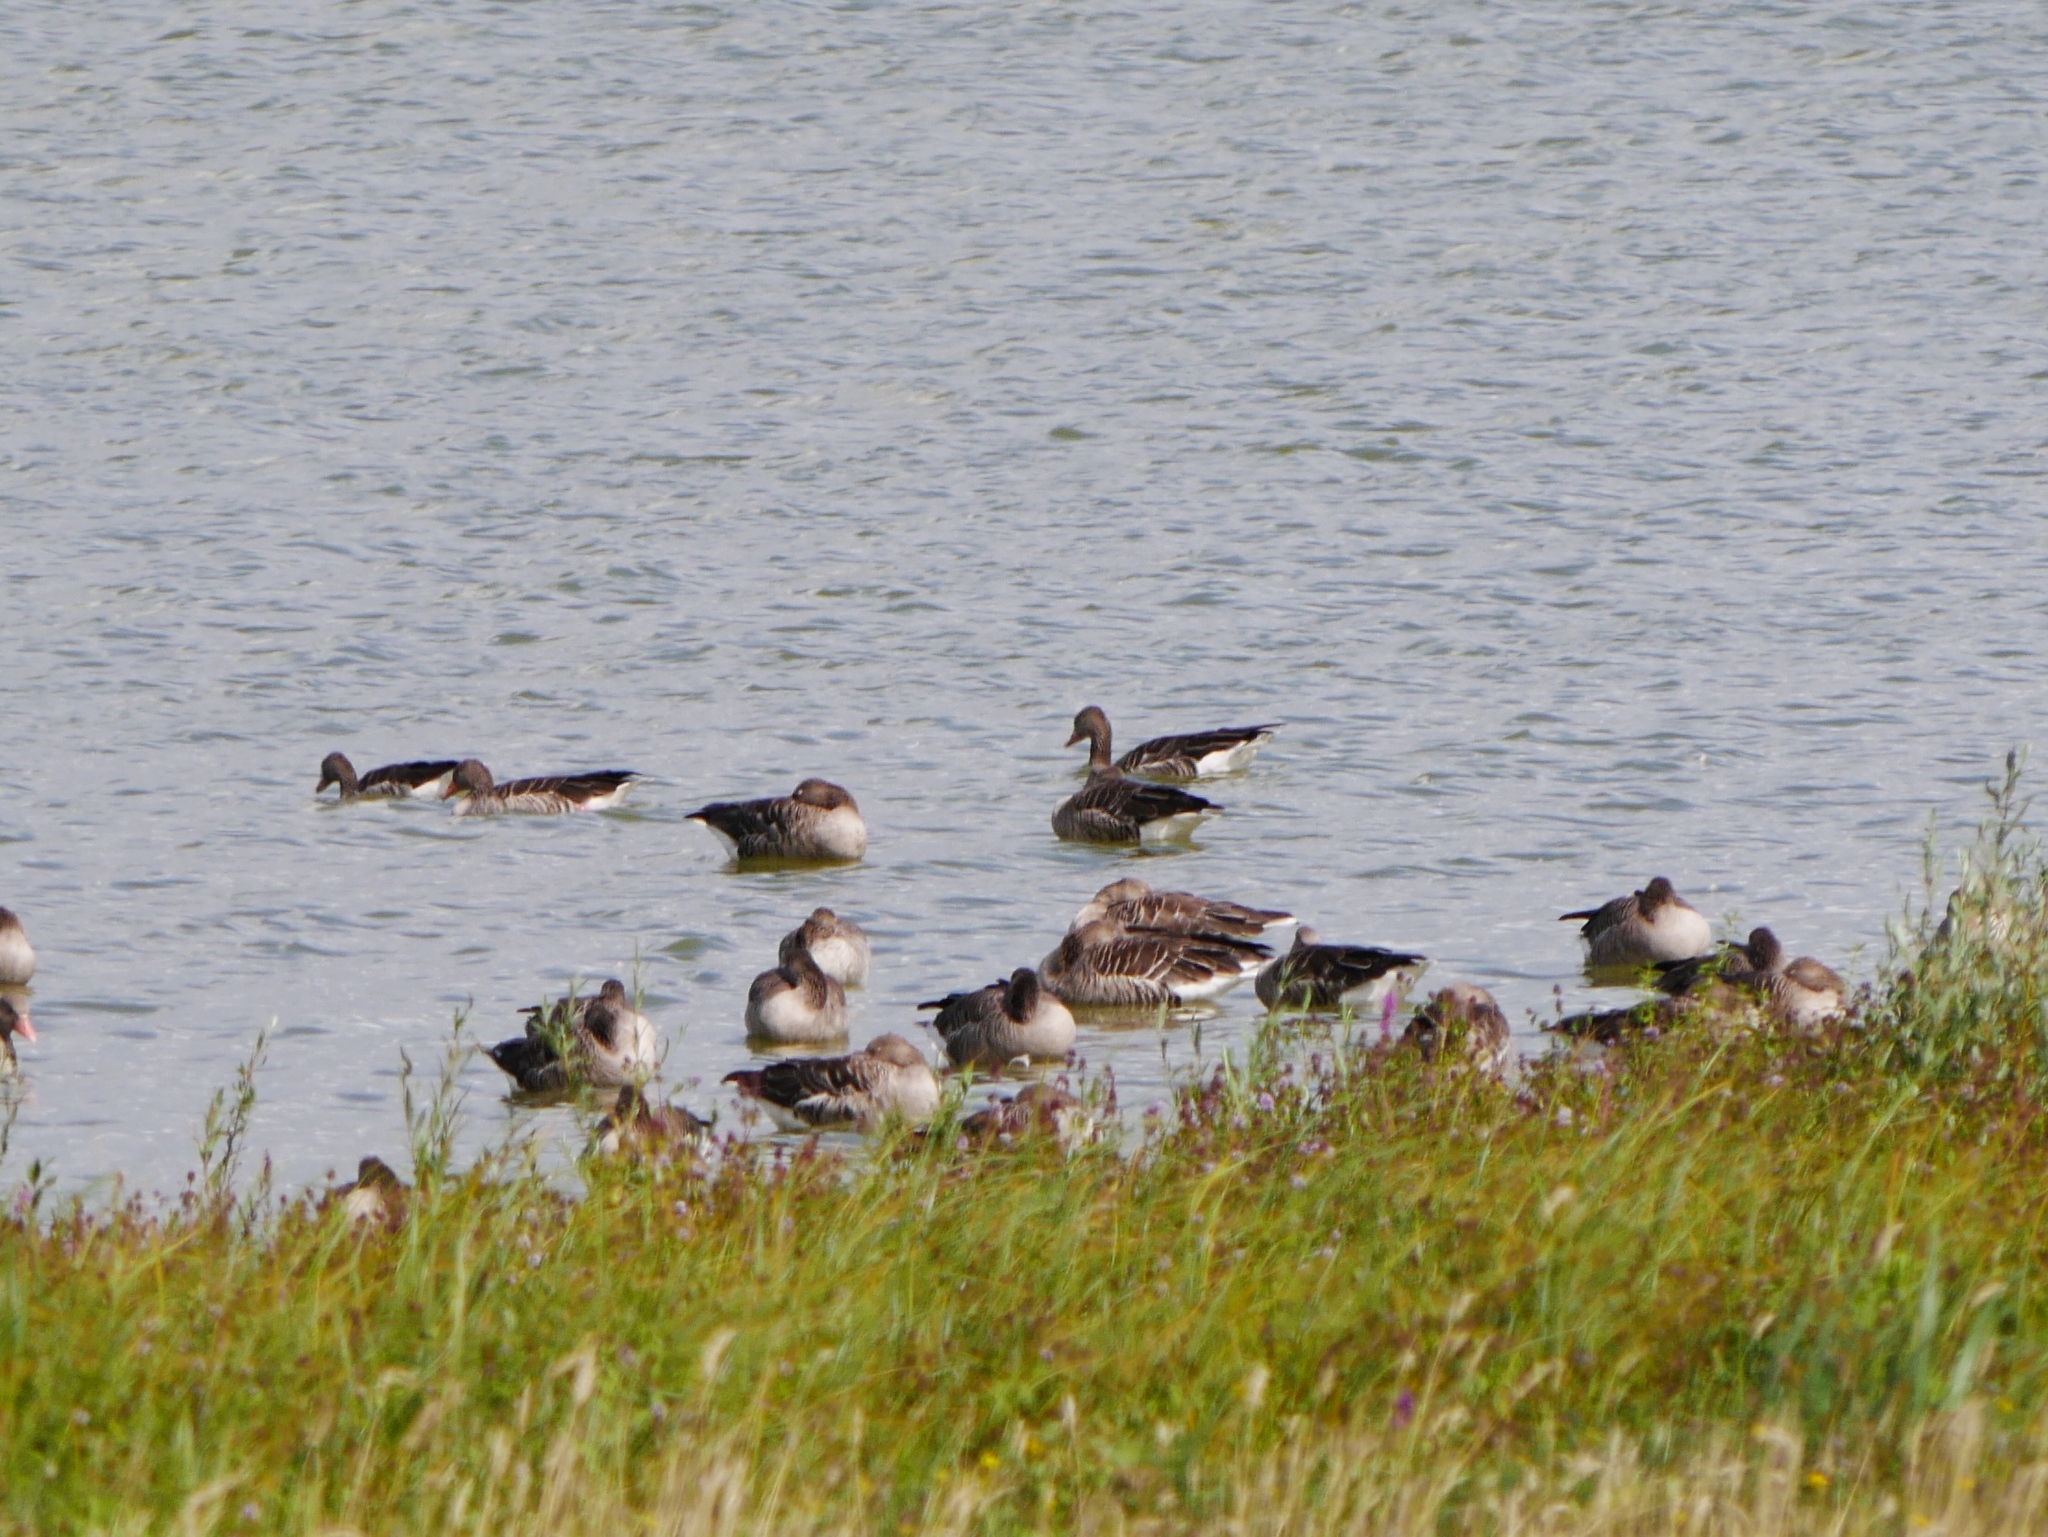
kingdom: Animalia
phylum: Chordata
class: Aves
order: Anseriformes
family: Anatidae
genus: Anser
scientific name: Anser anser
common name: Greylag goose
